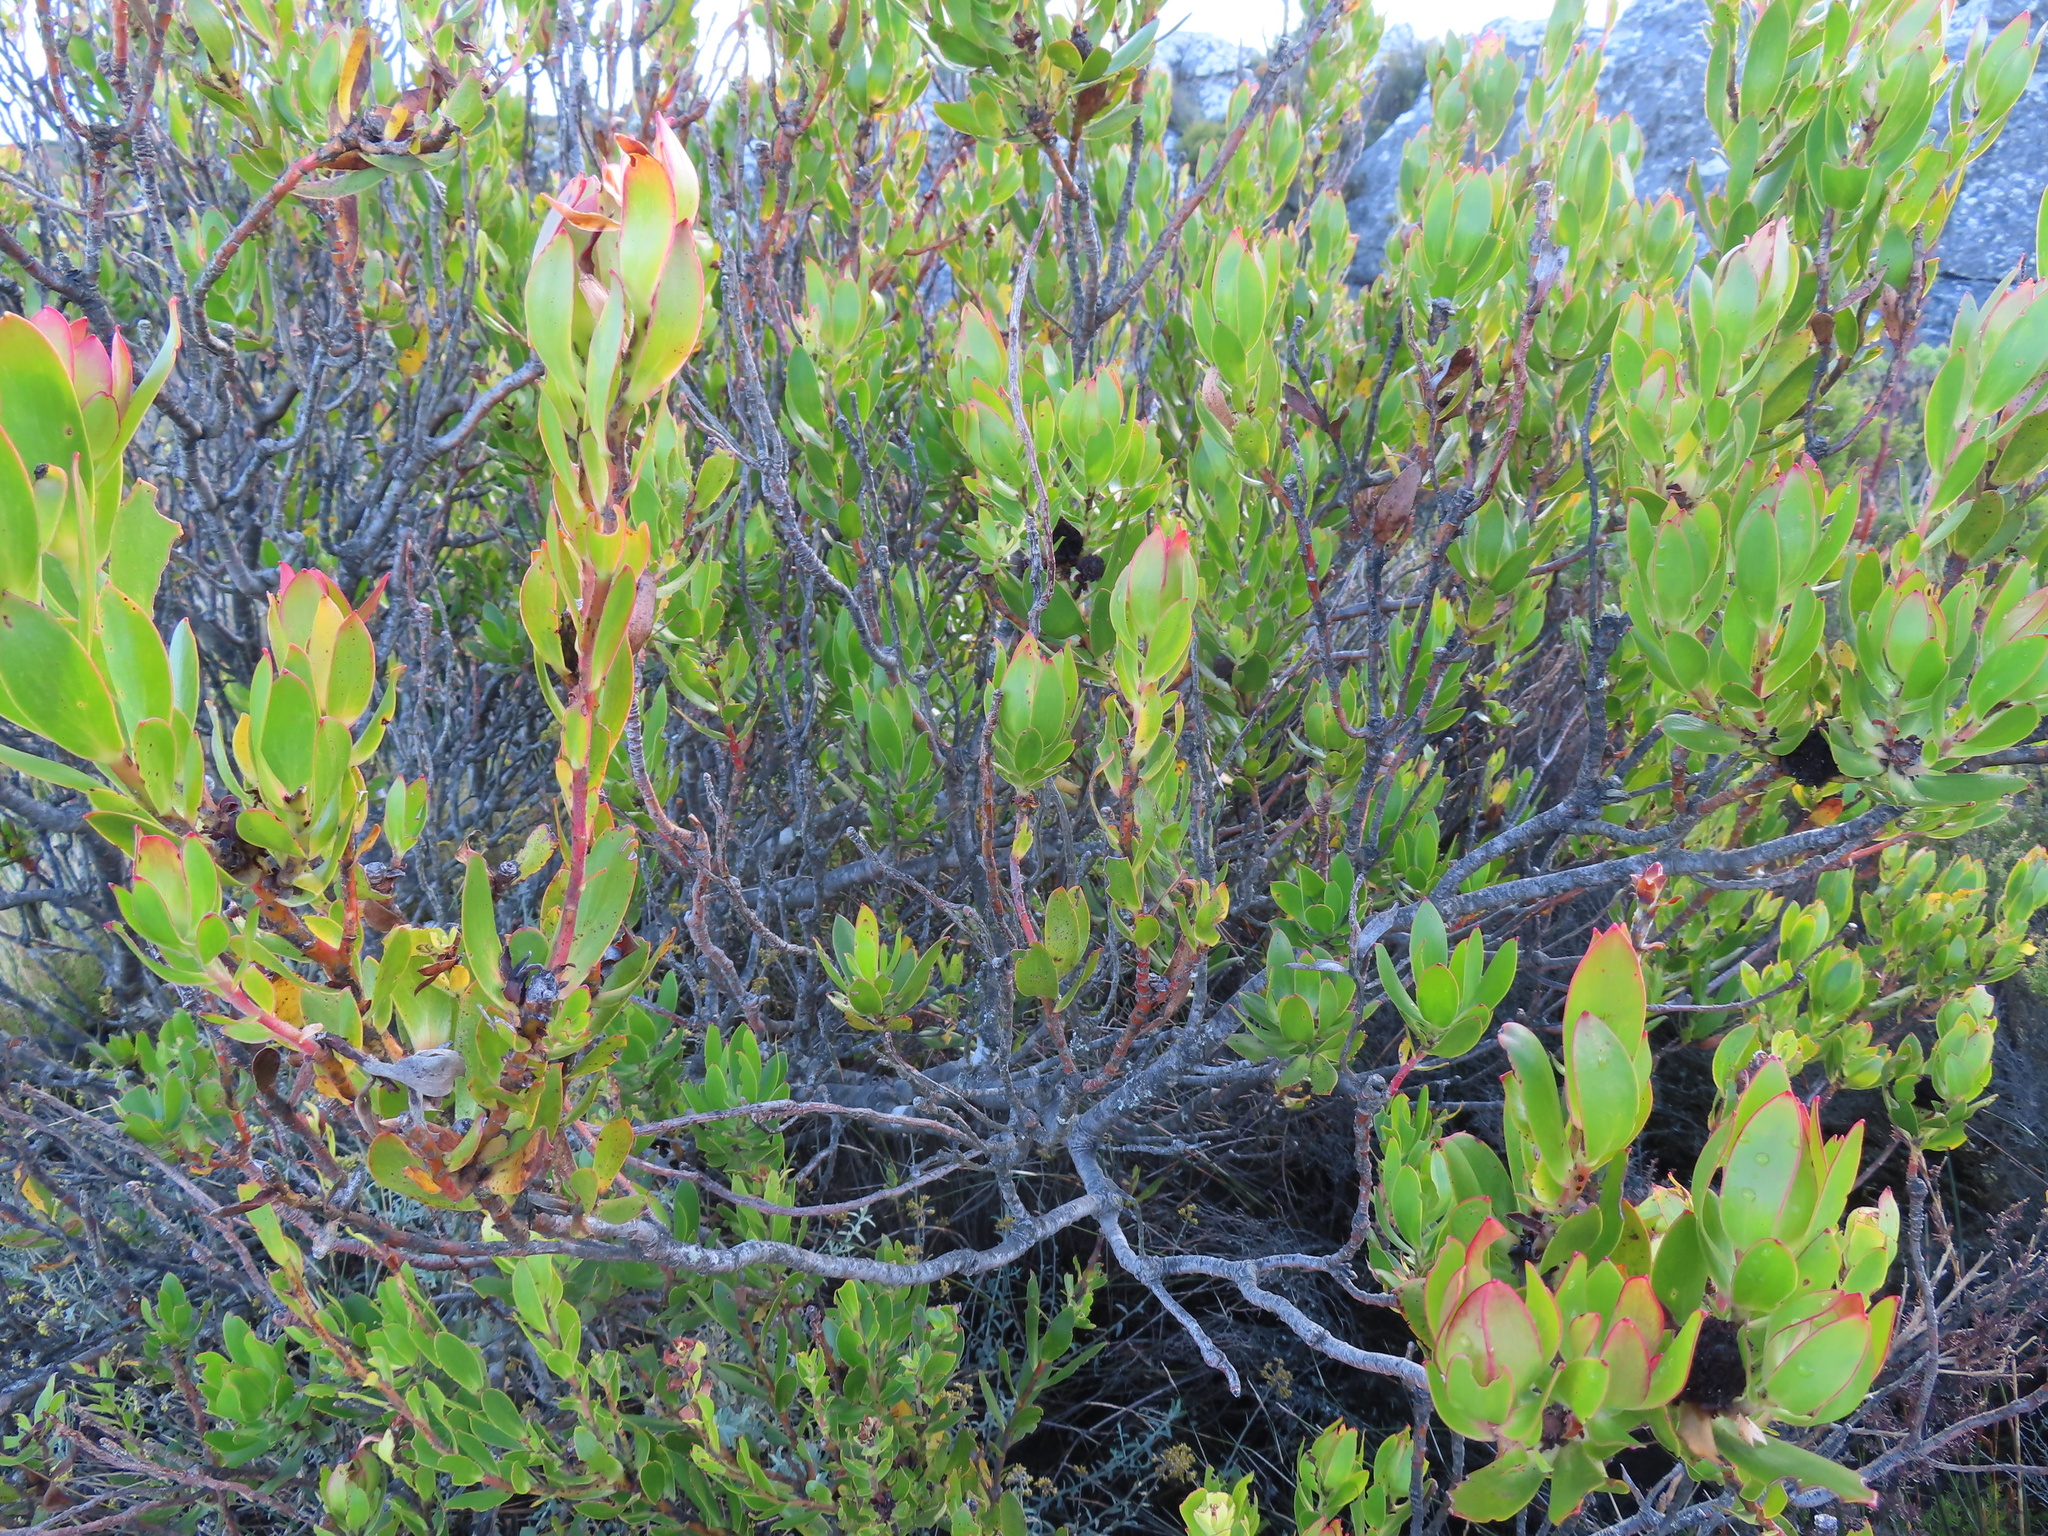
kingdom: Plantae
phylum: Tracheophyta
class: Magnoliopsida
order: Proteales
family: Proteaceae
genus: Leucadendron
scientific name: Leucadendron strobilinum
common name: Mountain rose
